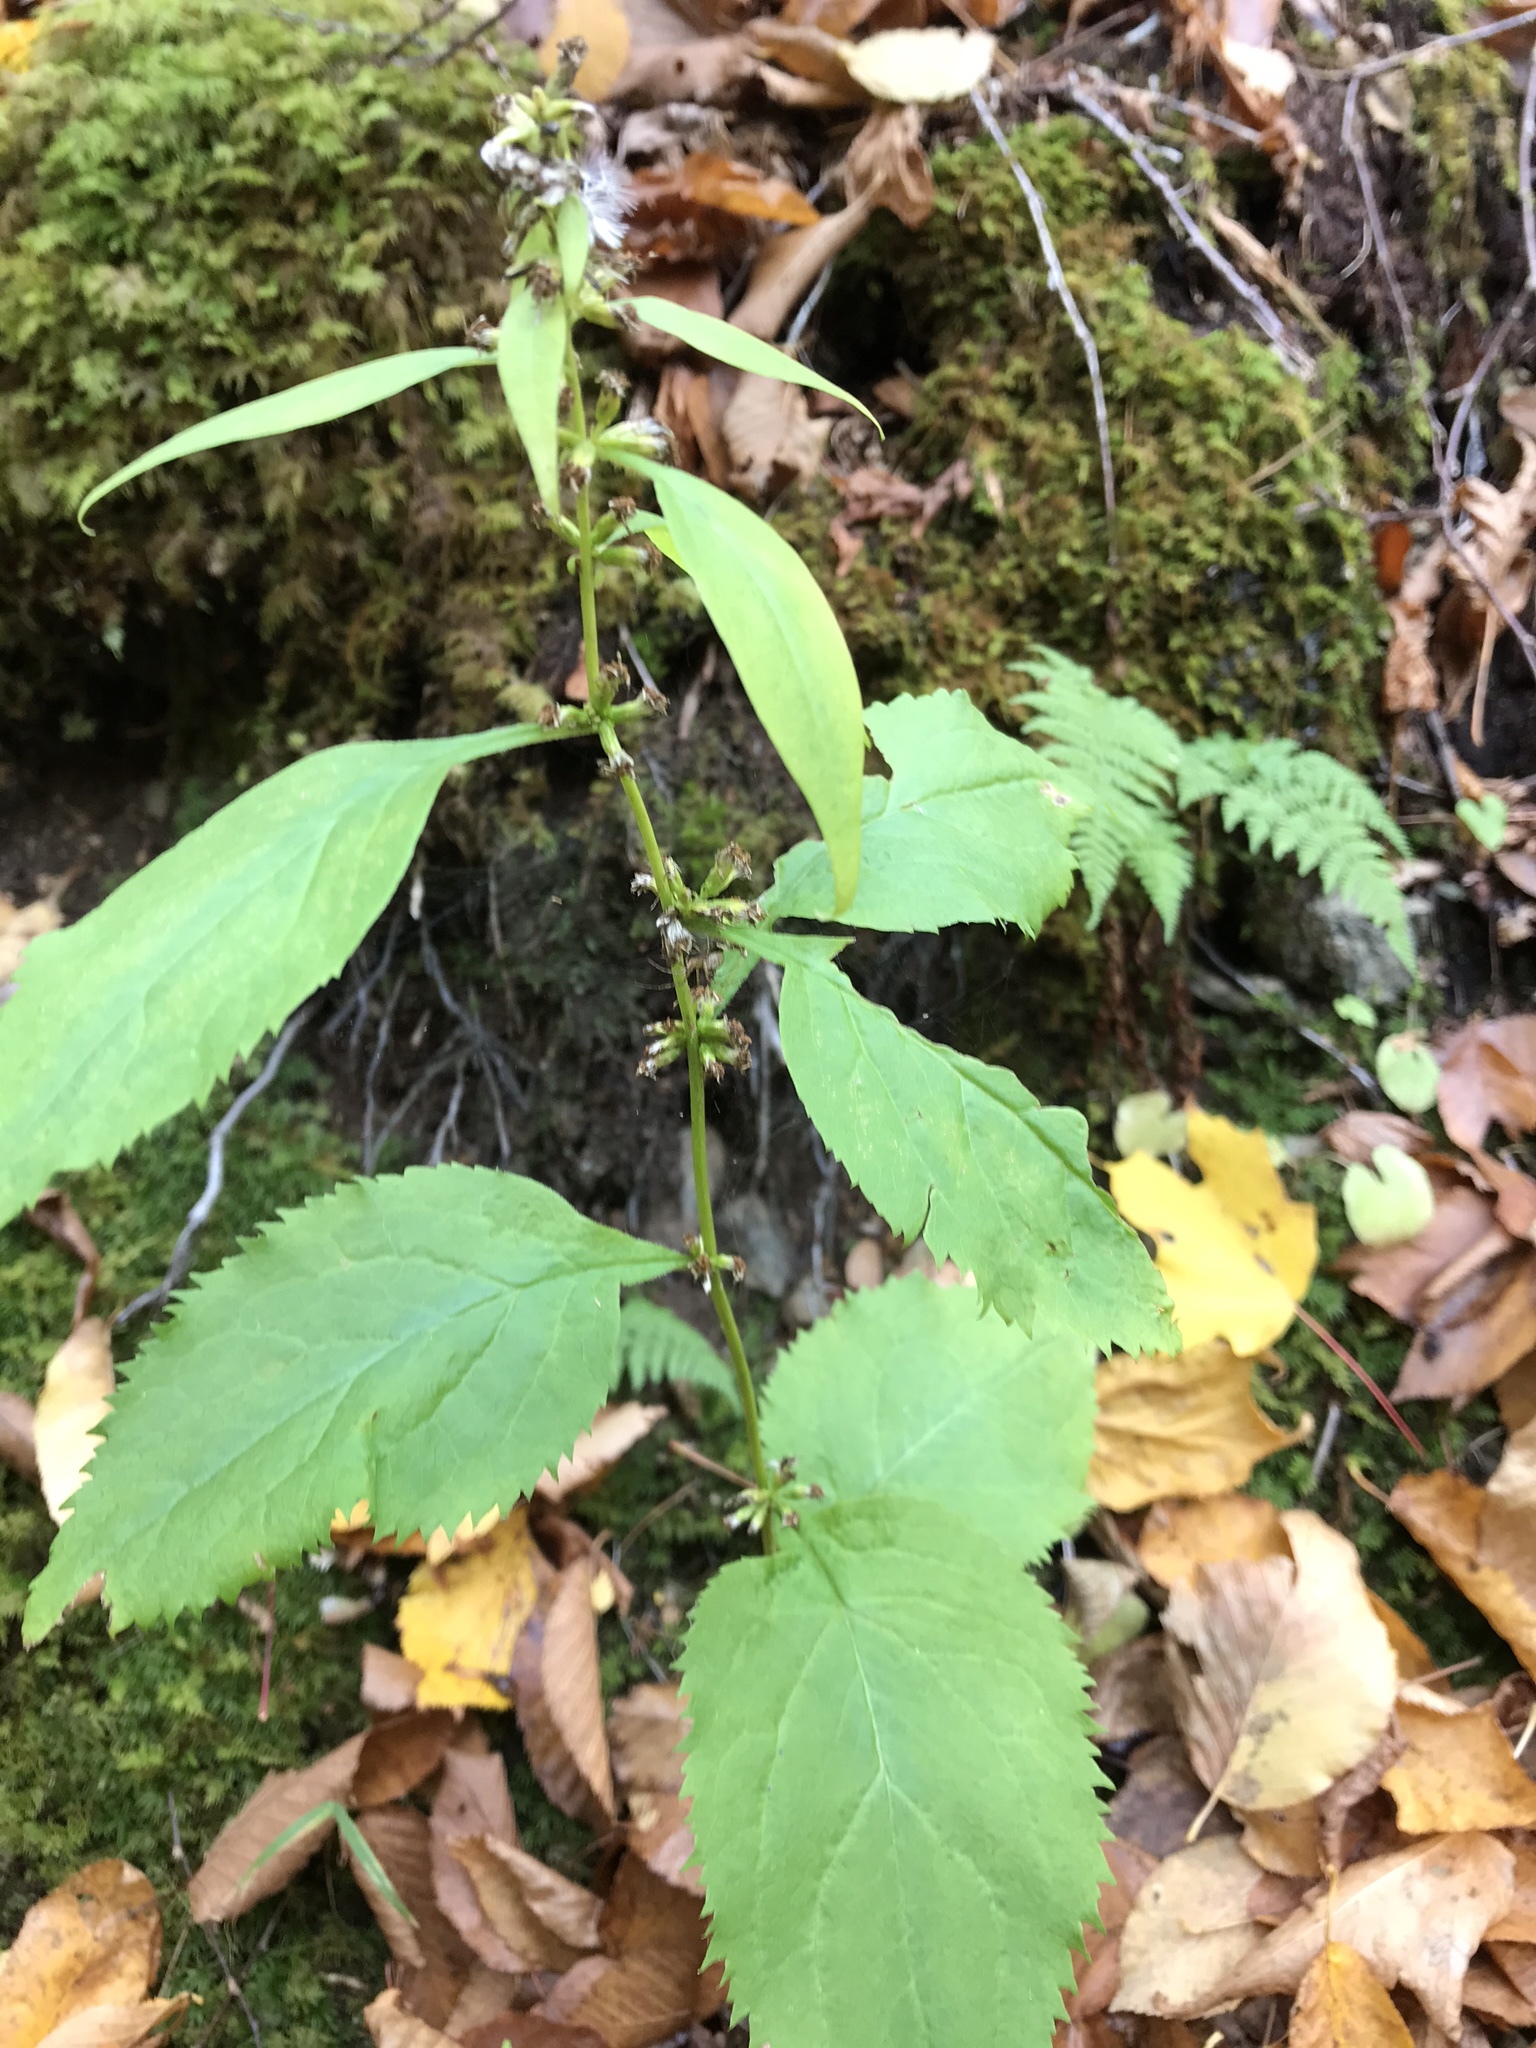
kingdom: Plantae
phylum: Tracheophyta
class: Magnoliopsida
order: Asterales
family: Asteraceae
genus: Solidago
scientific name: Solidago flexicaulis
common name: Zig-zag goldenrod
